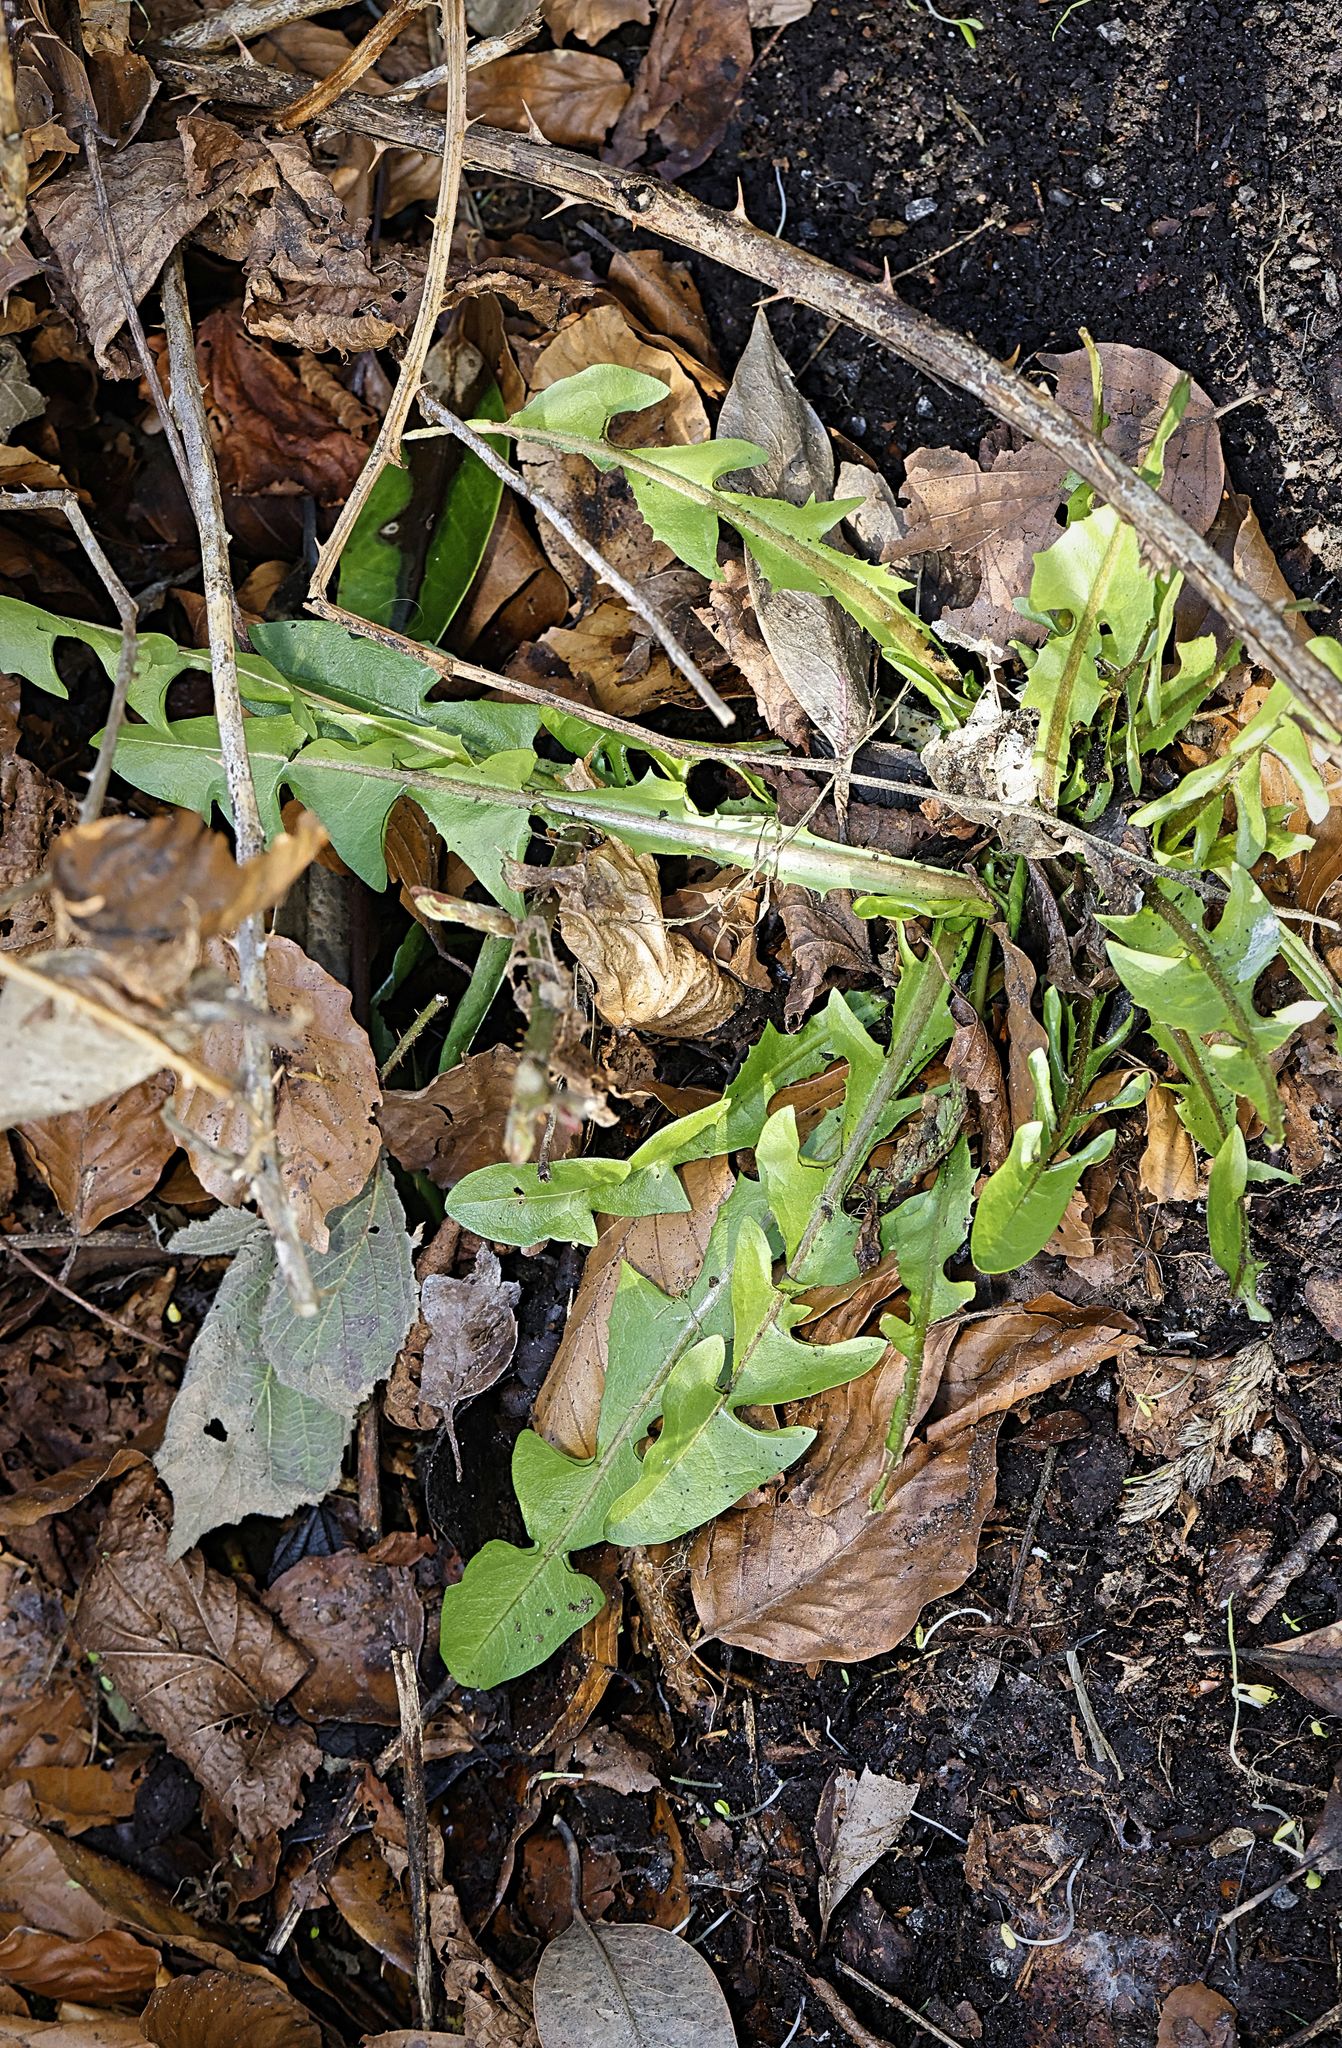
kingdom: Plantae
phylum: Tracheophyta
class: Magnoliopsida
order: Asterales
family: Asteraceae
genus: Taraxacum
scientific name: Taraxacum officinale
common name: Common dandelion
